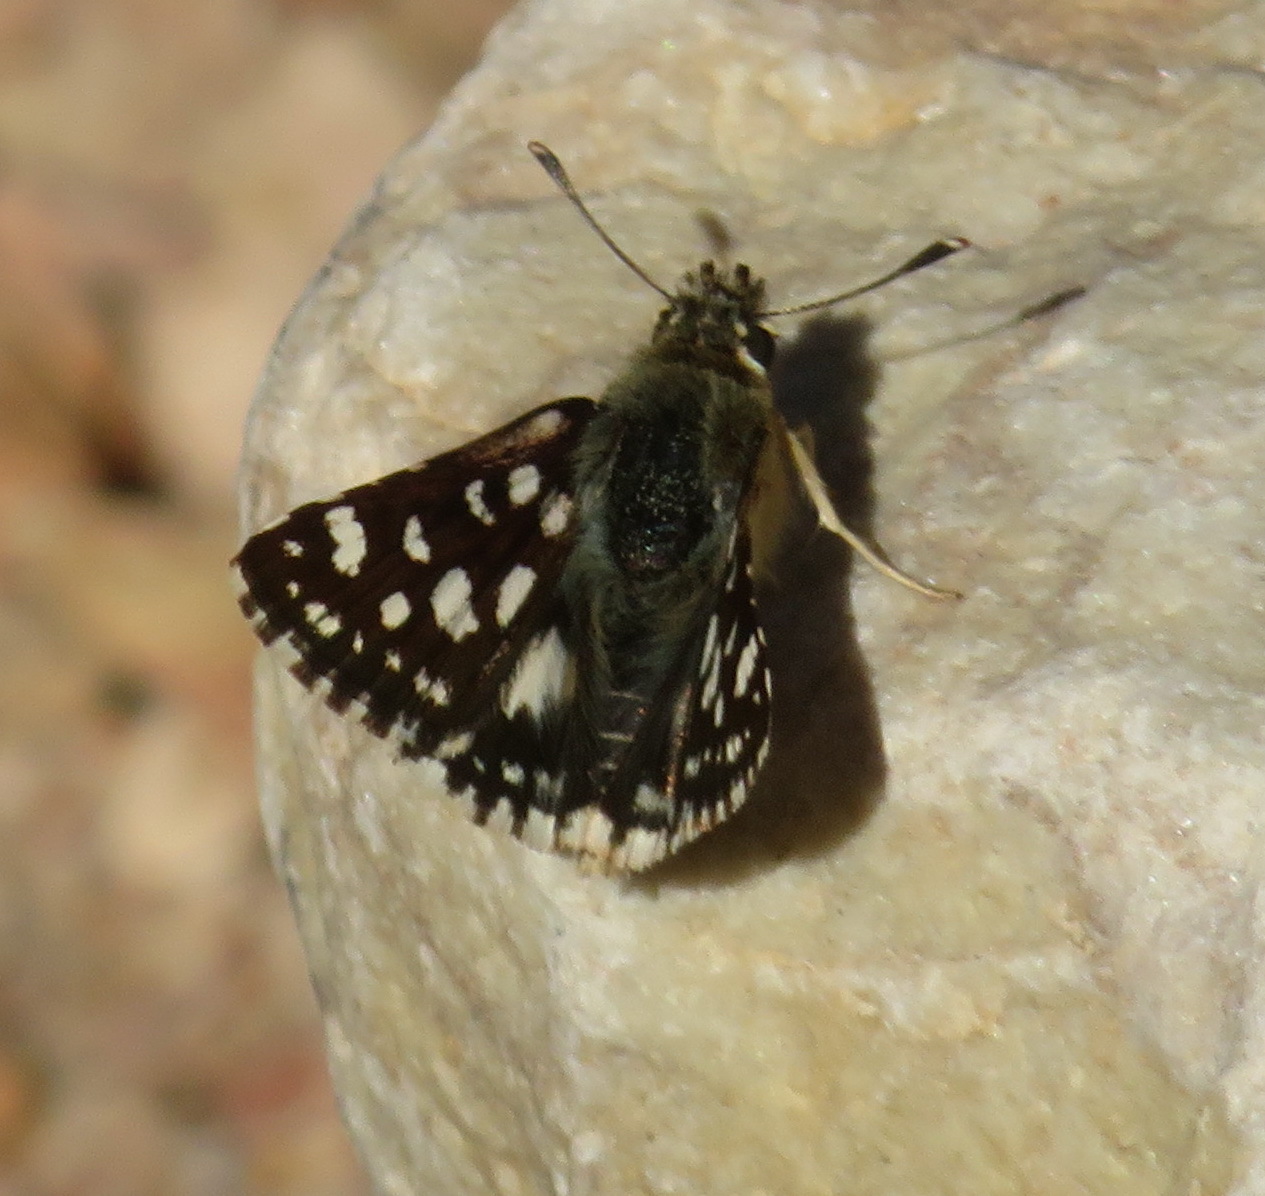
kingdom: Animalia
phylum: Arthropoda
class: Insecta
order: Lepidoptera
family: Hesperiidae
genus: Spialia
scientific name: Spialia diomus
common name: Common sandman
